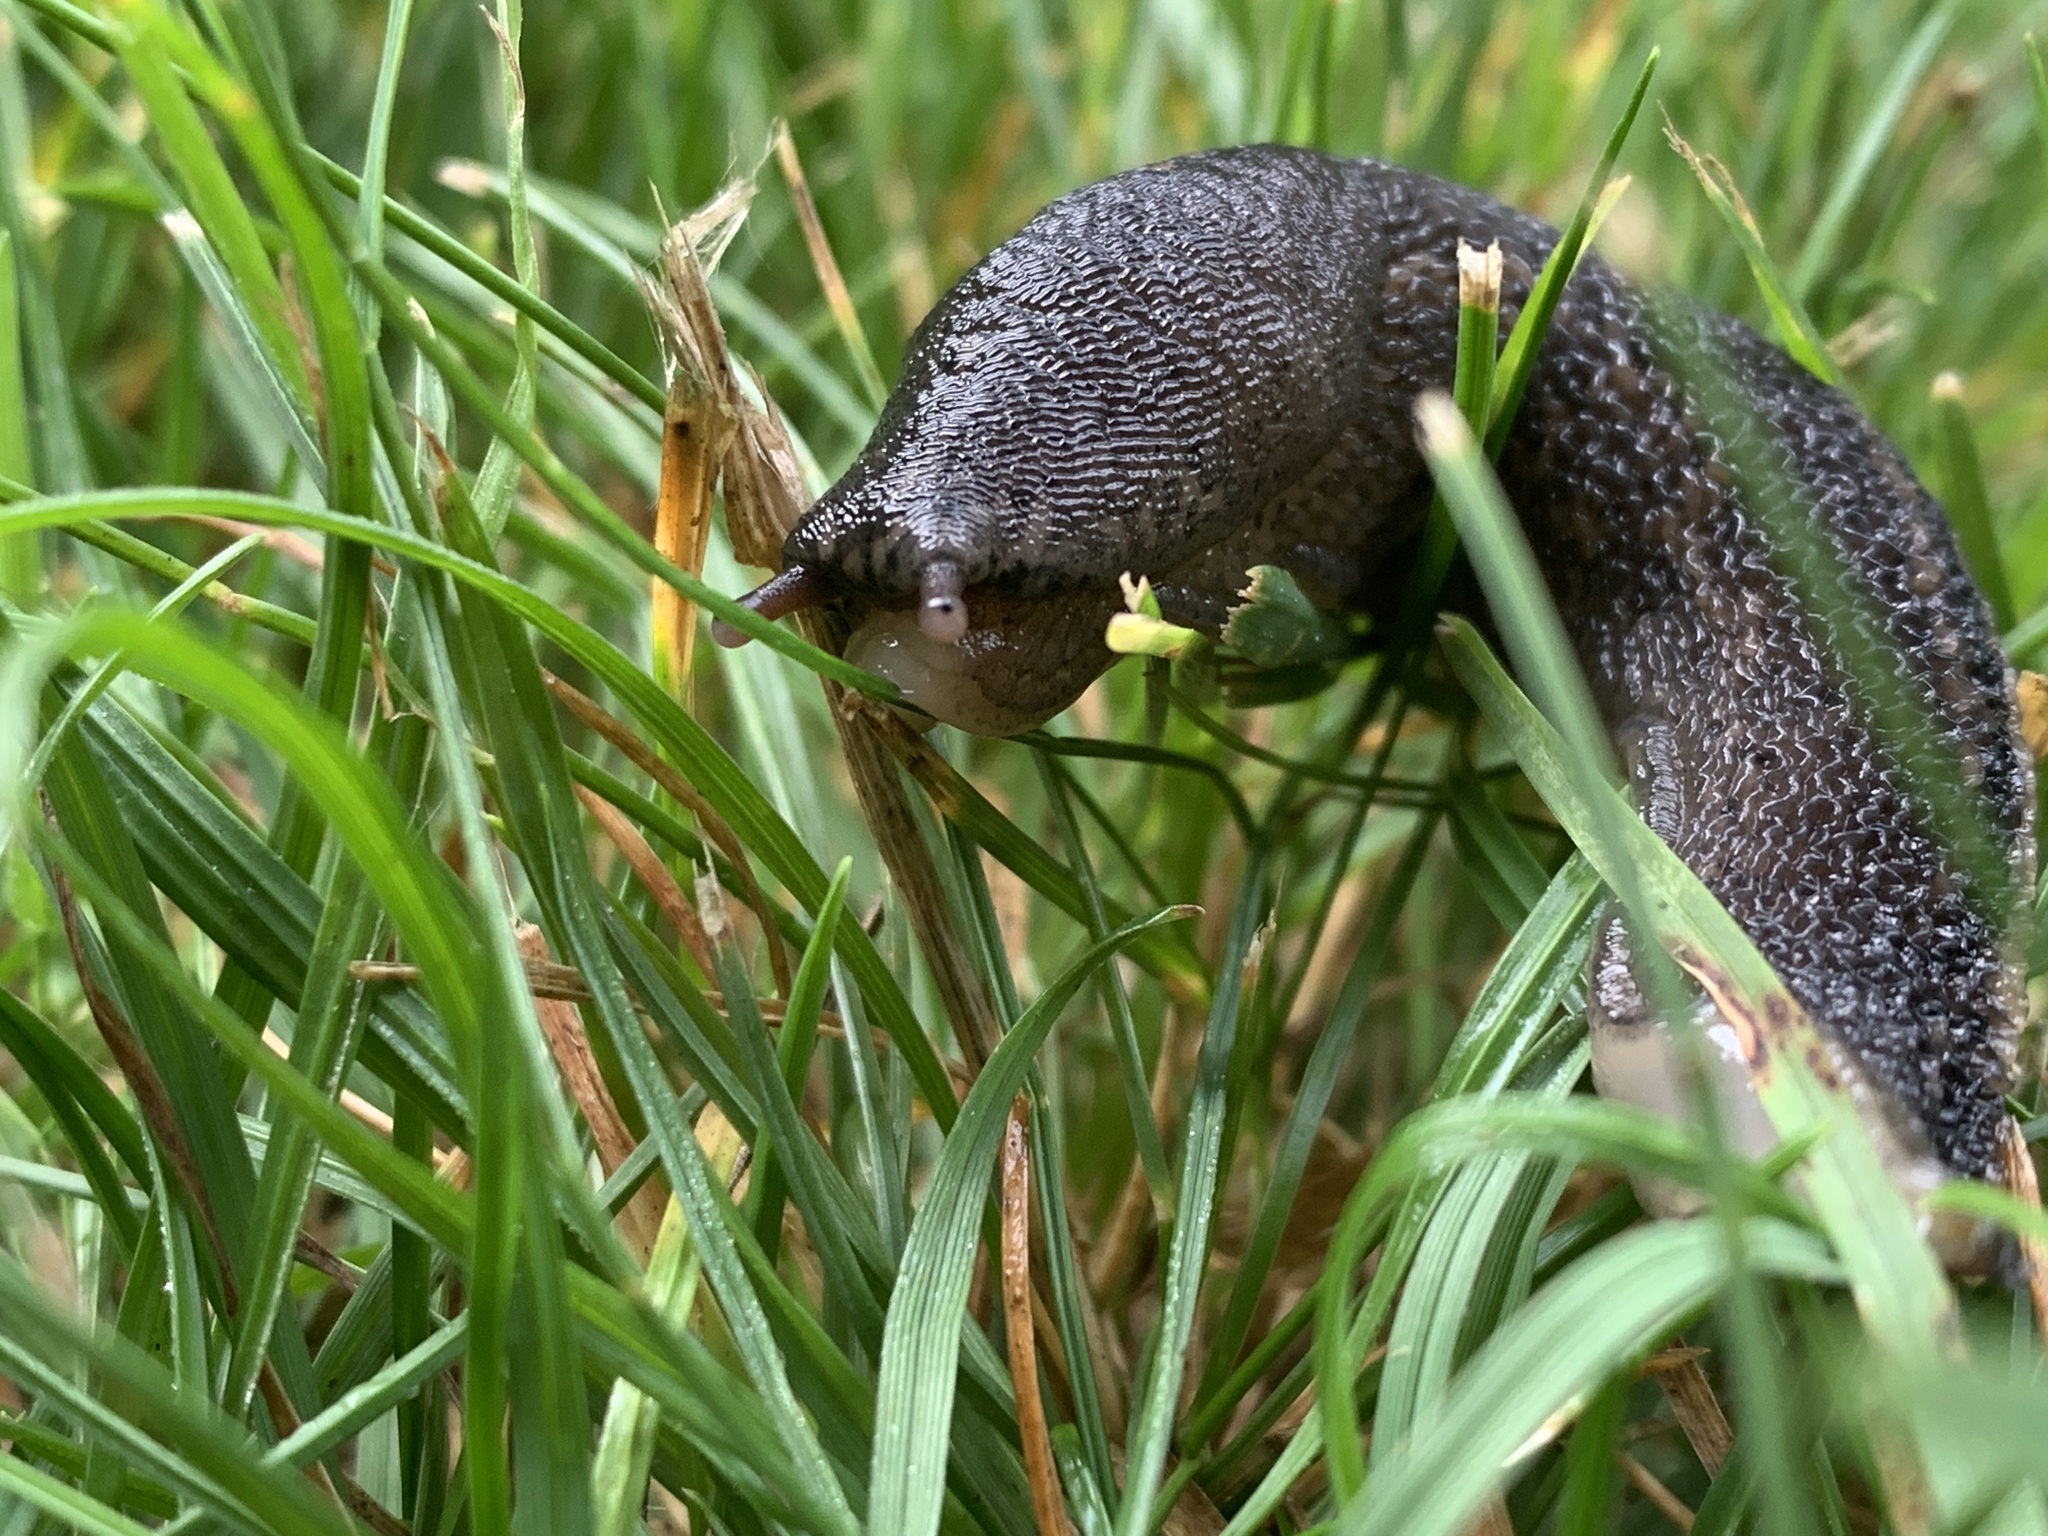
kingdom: Animalia
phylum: Mollusca
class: Gastropoda
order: Stylommatophora
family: Limacidae
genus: Limax
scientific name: Limax maximus
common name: Great grey slug
